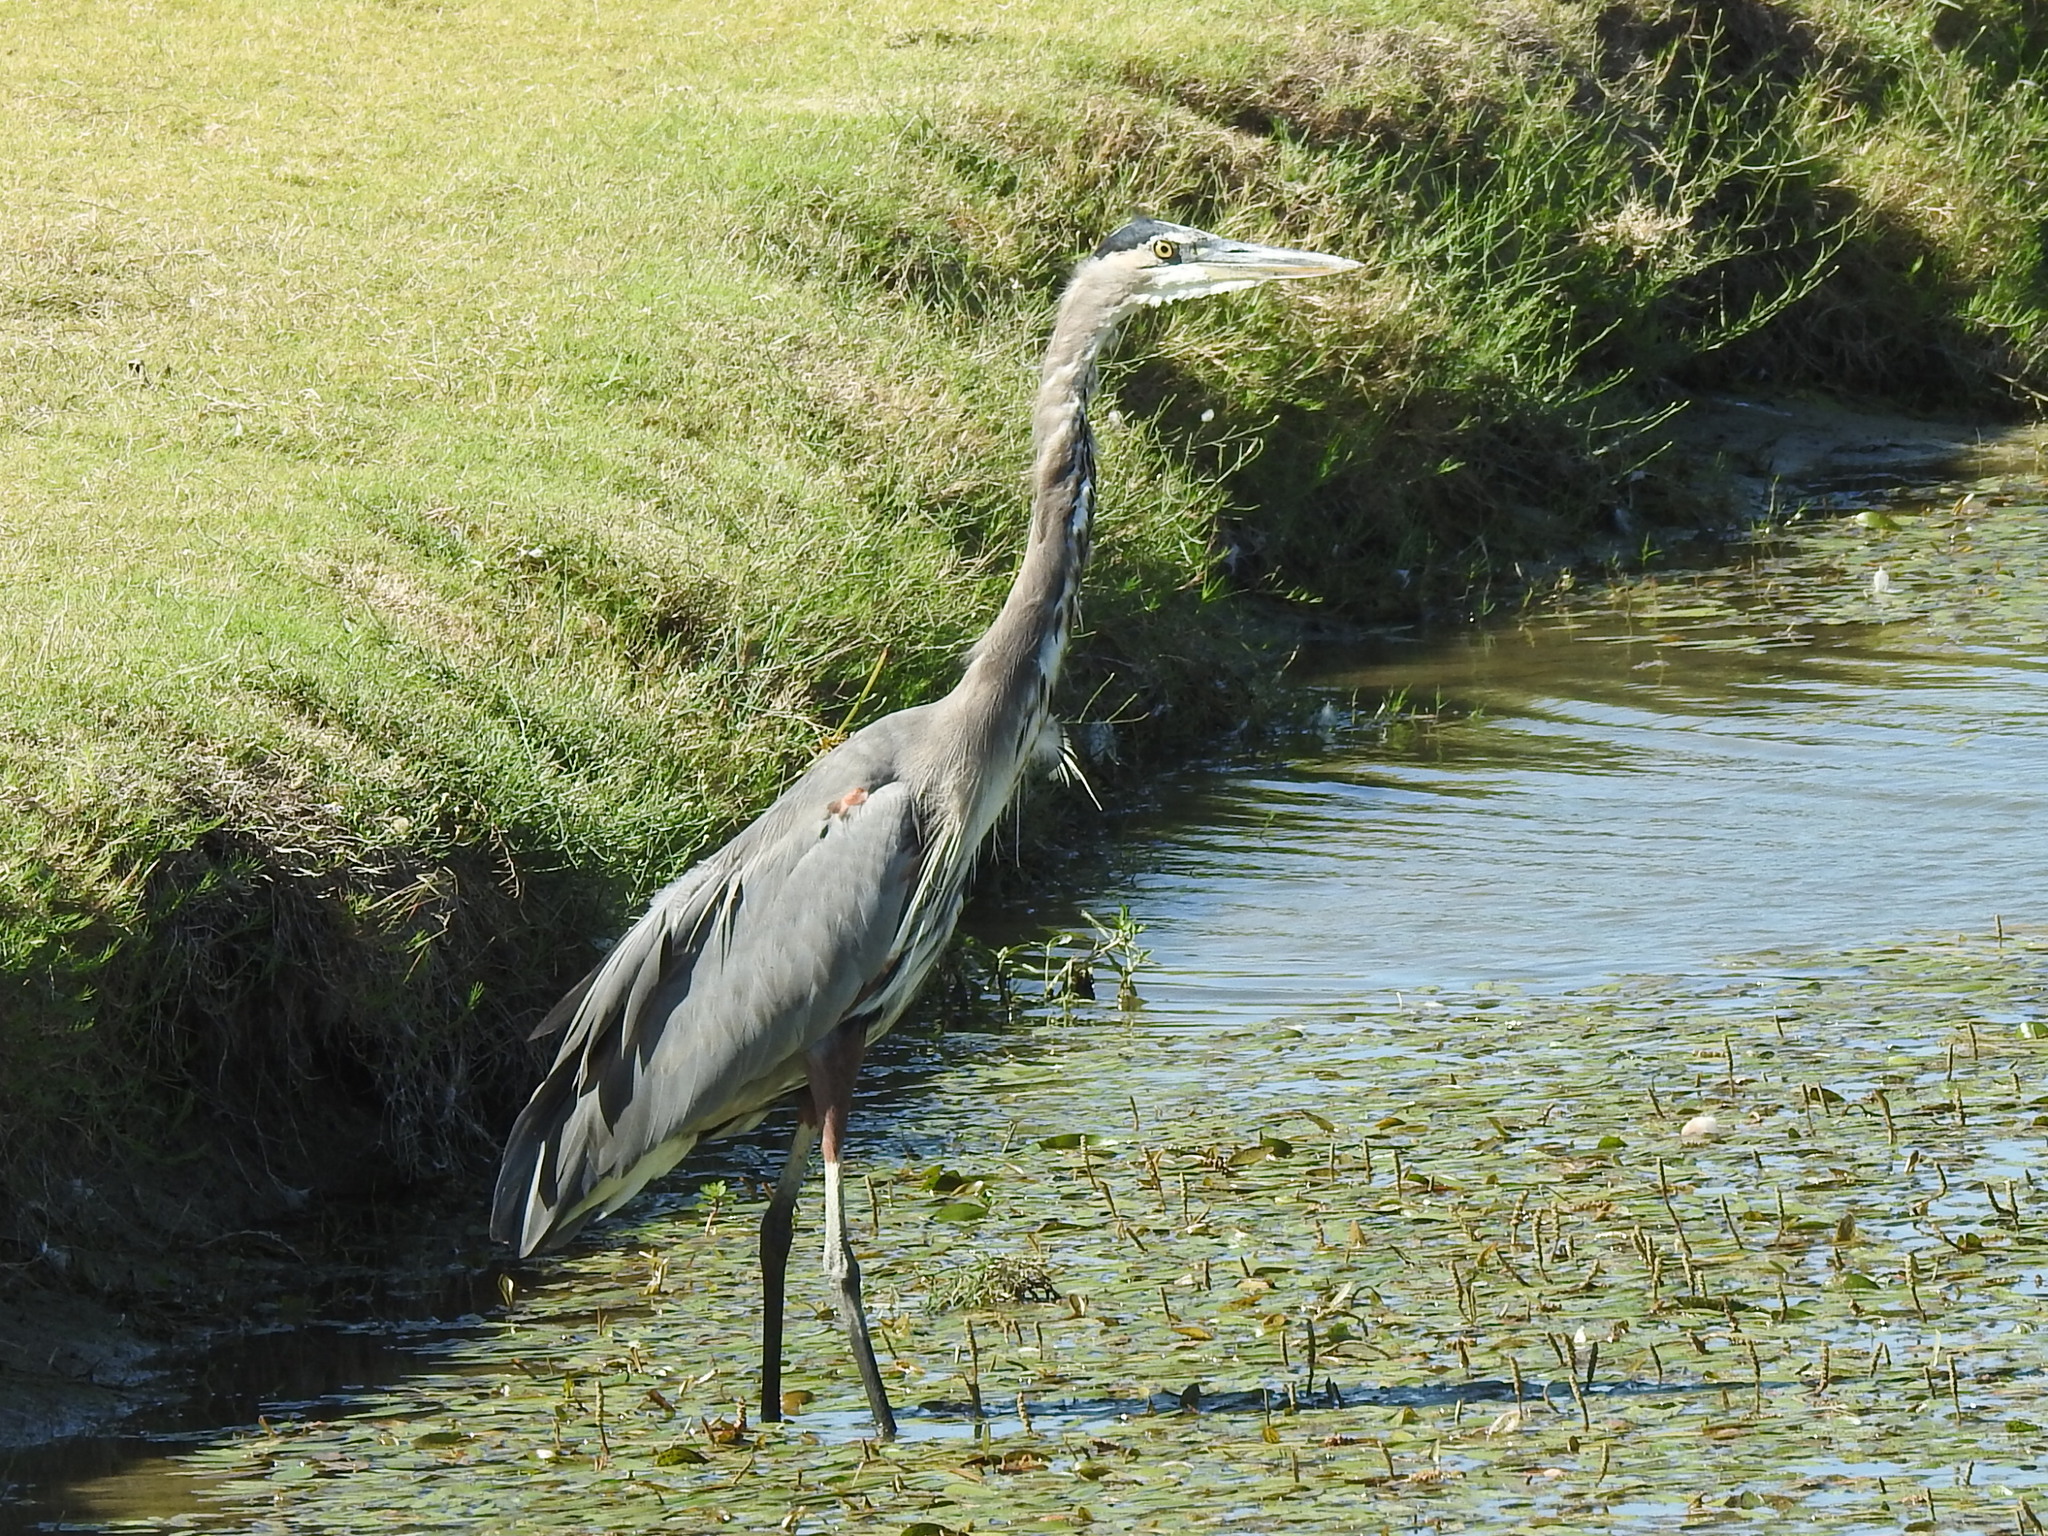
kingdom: Animalia
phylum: Chordata
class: Aves
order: Pelecaniformes
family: Ardeidae
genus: Ardea
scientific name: Ardea herodias
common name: Great blue heron
